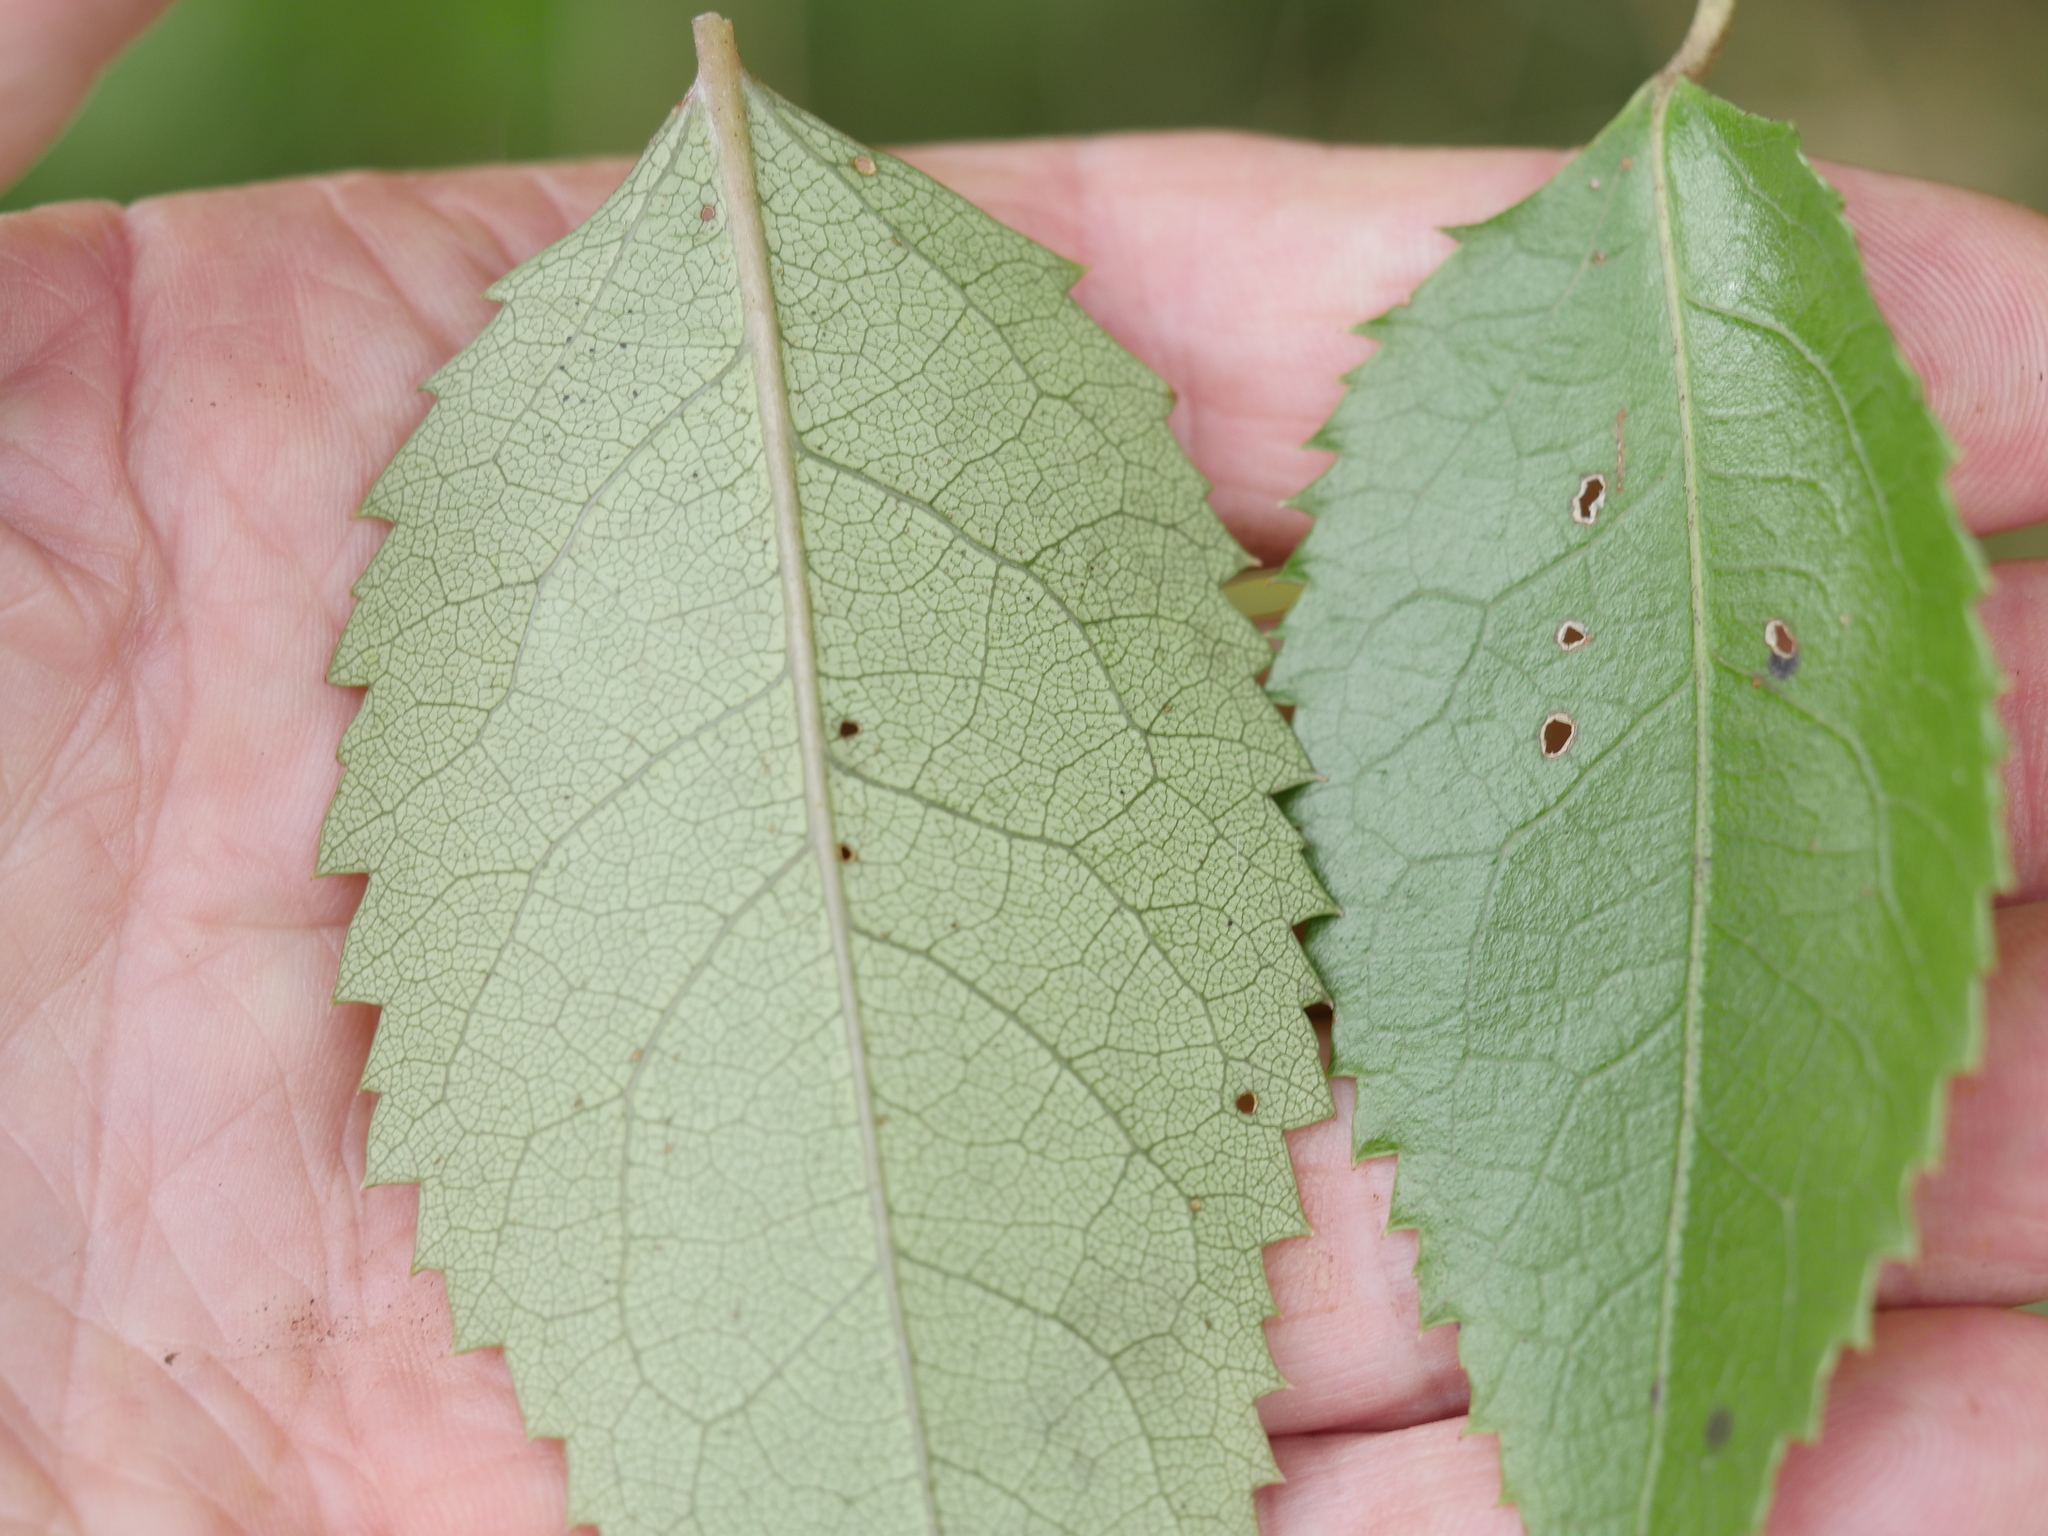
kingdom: Plantae
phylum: Tracheophyta
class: Magnoliopsida
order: Malvales
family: Malvaceae
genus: Hoheria
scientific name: Hoheria populnea
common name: Lacebark
